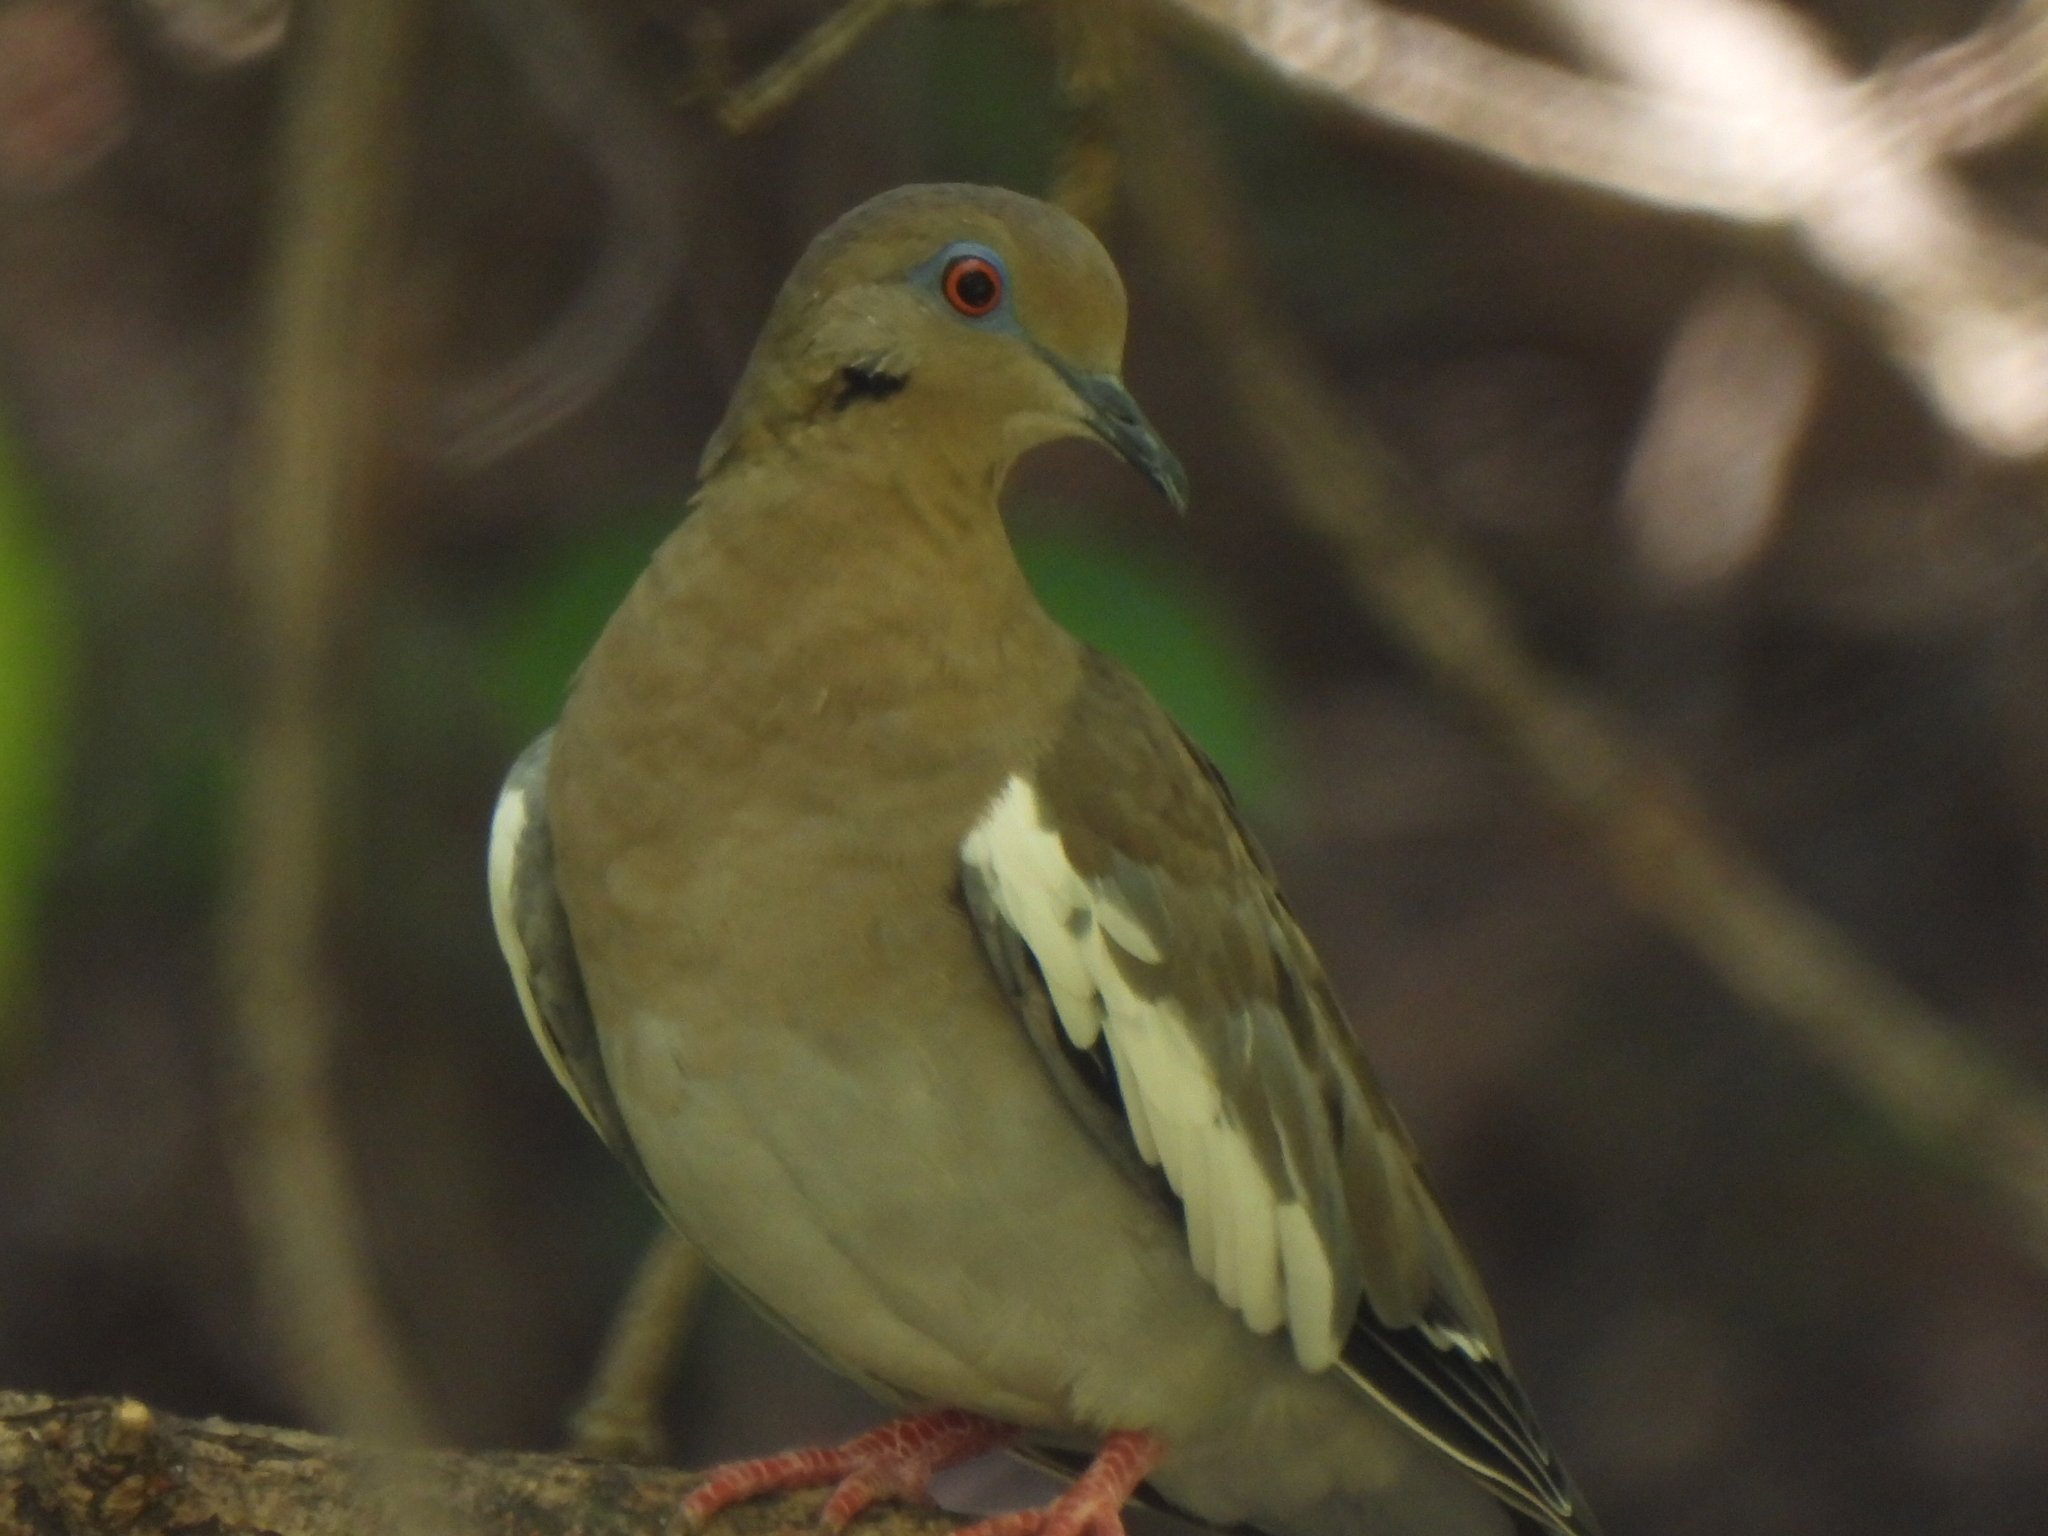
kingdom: Animalia
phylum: Chordata
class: Aves
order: Columbiformes
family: Columbidae
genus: Zenaida
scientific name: Zenaida asiatica
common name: White-winged dove
